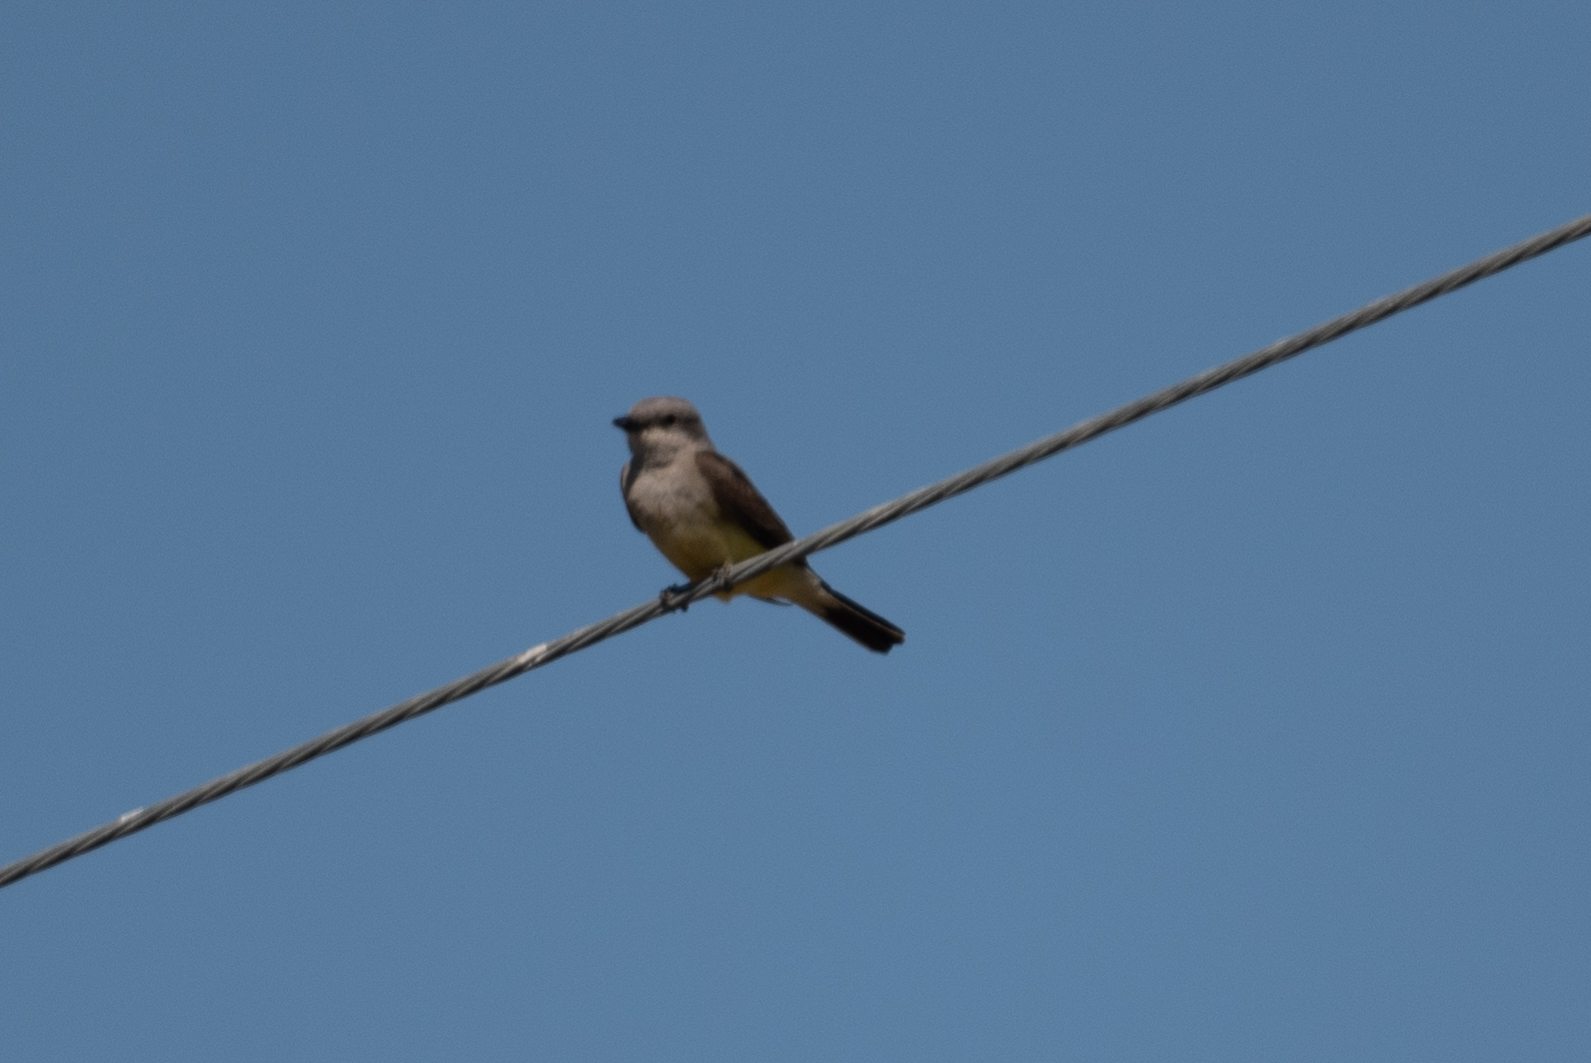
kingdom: Animalia
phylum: Chordata
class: Aves
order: Passeriformes
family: Tyrannidae
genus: Tyrannus
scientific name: Tyrannus verticalis
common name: Western kingbird
